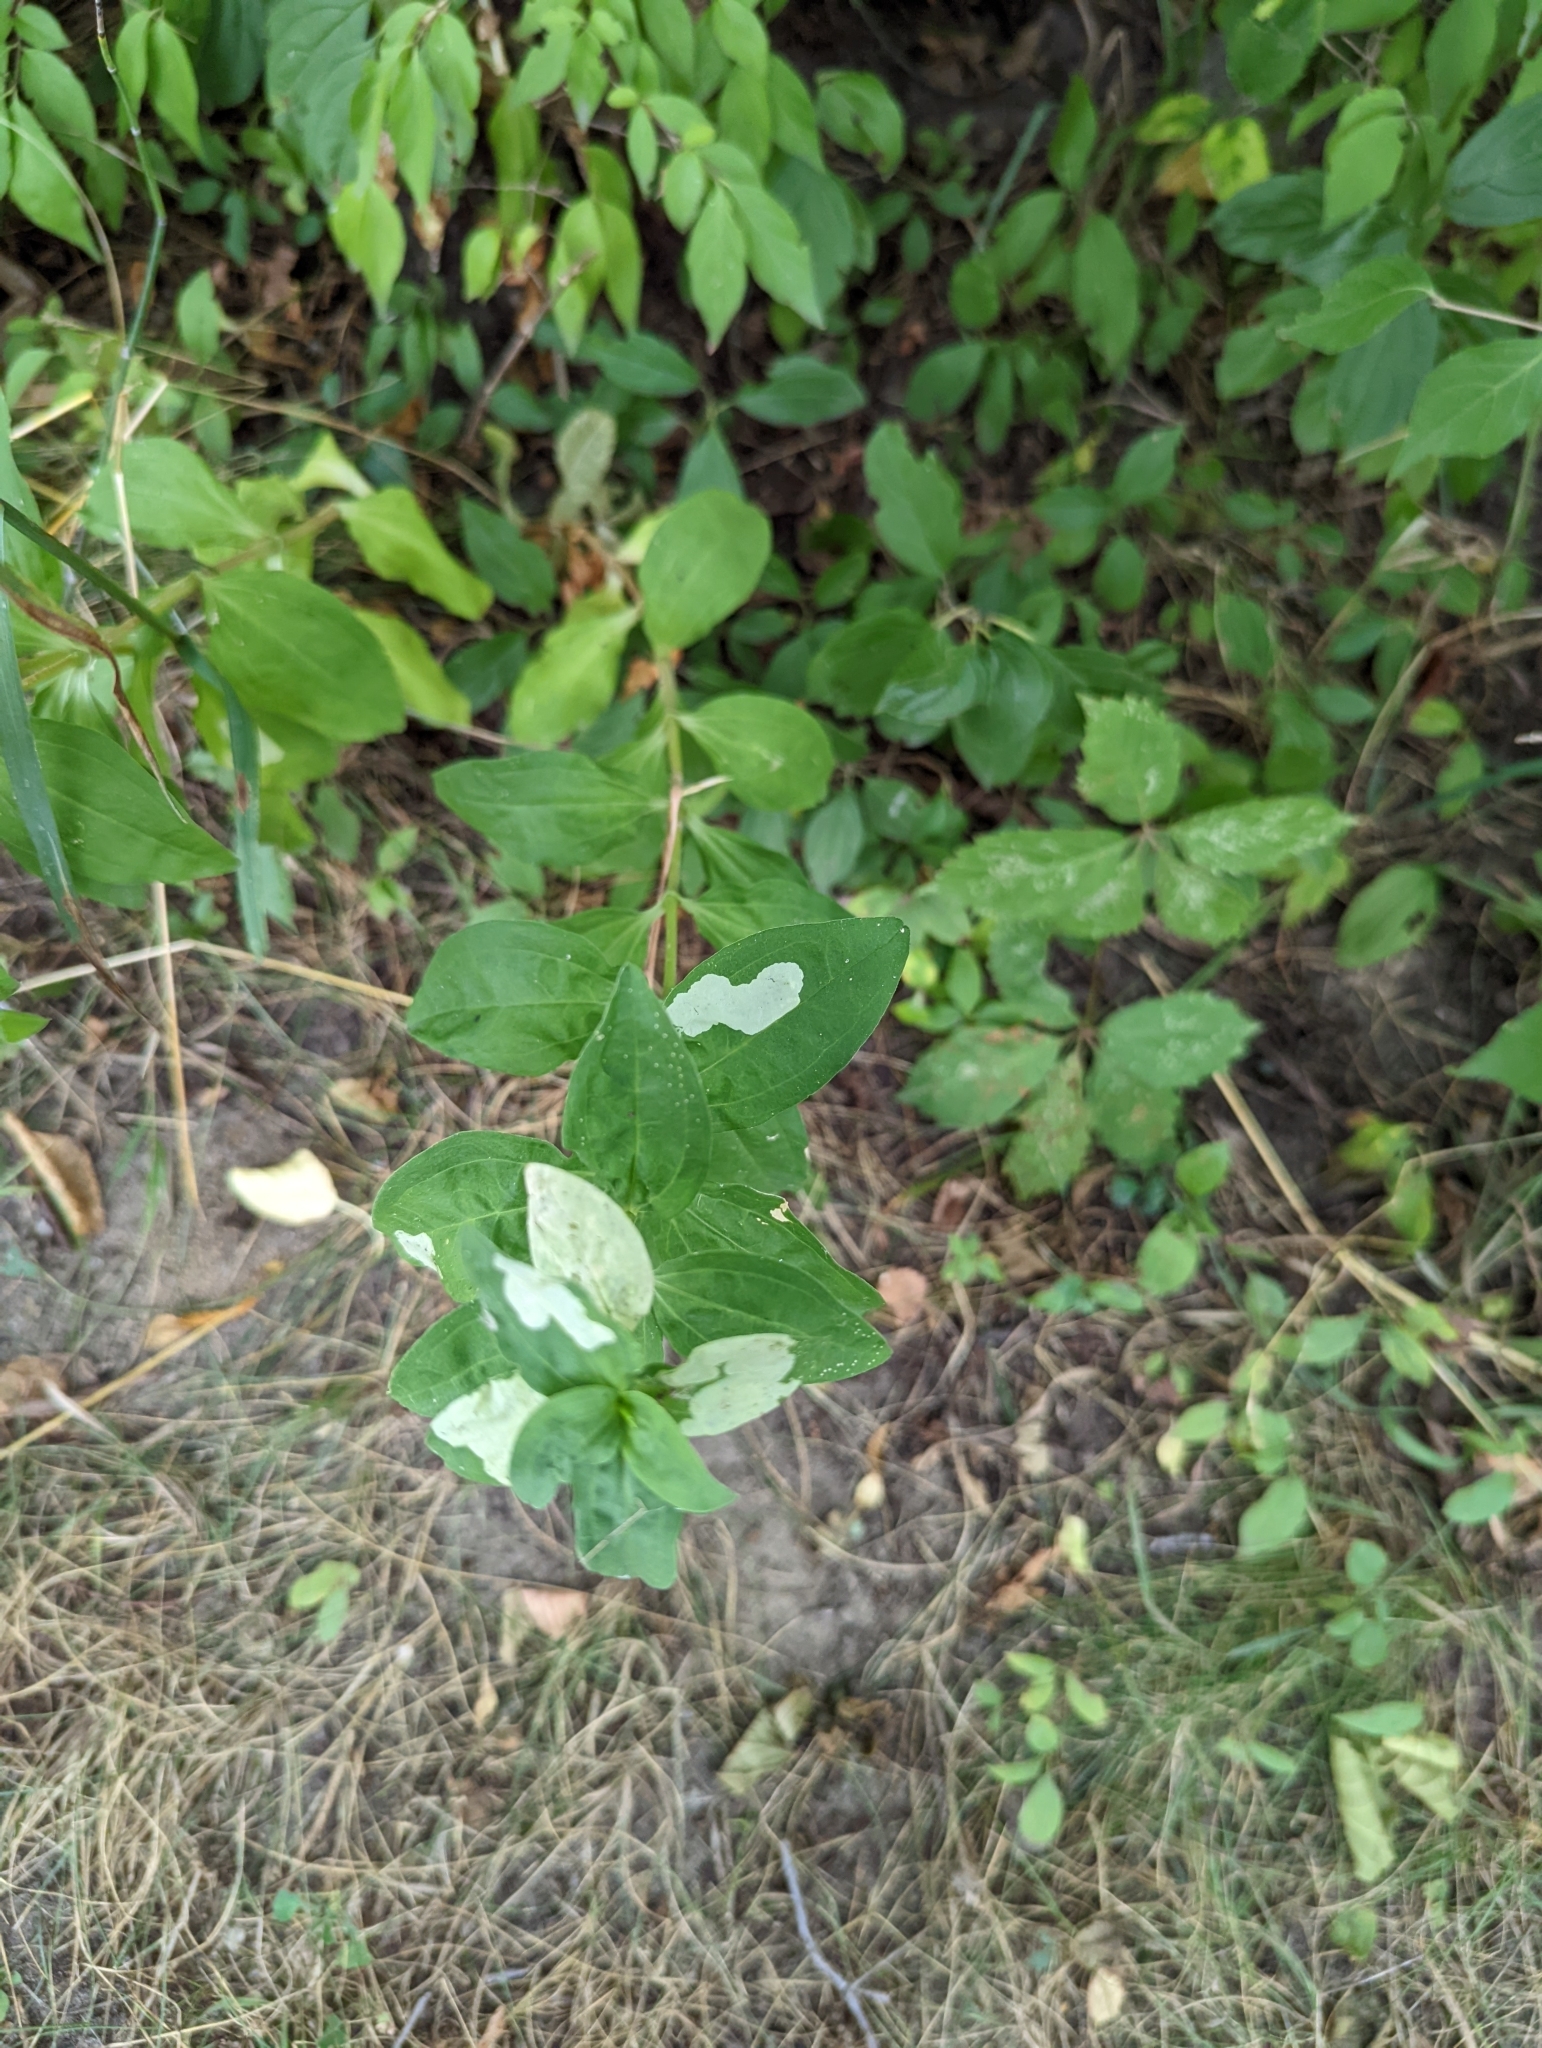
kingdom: Plantae
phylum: Tracheophyta
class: Magnoliopsida
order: Caryophyllales
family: Caryophyllaceae
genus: Saponaria
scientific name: Saponaria officinalis
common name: Soapwort
